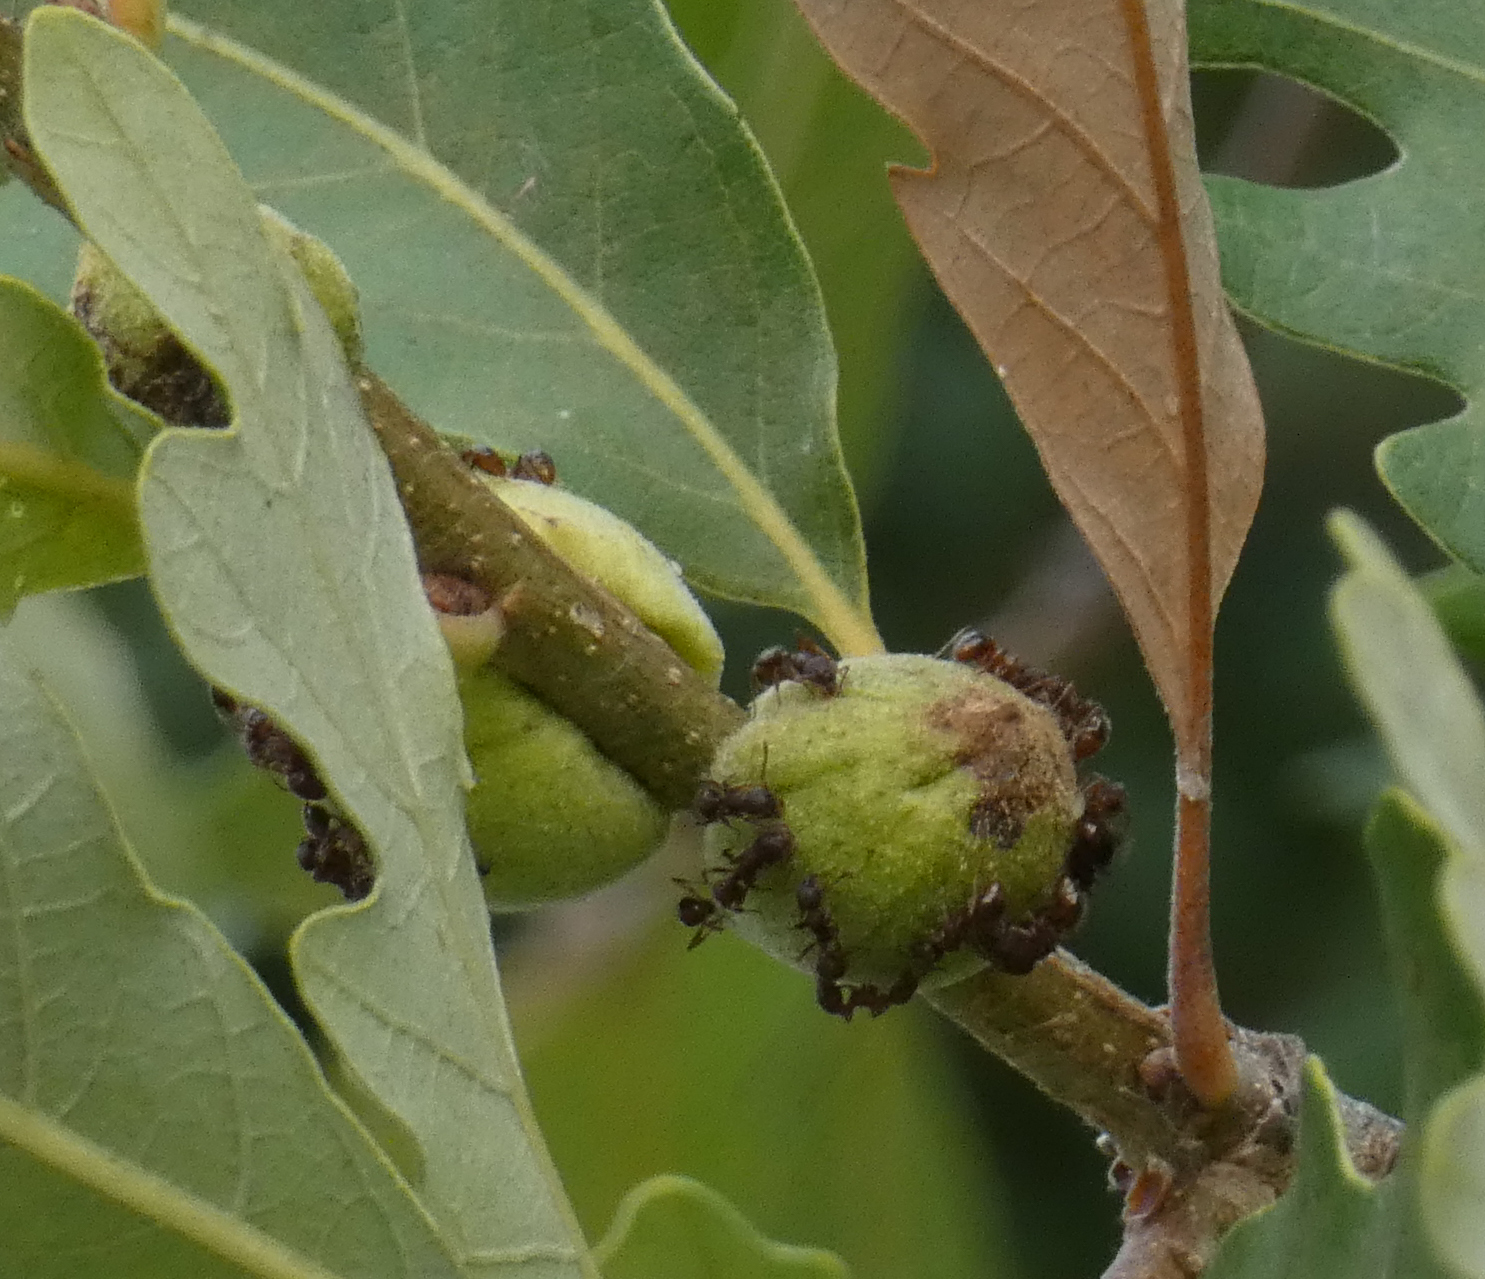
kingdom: Animalia
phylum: Arthropoda
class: Insecta
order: Hymenoptera
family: Cynipidae
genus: Disholcaspis
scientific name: Disholcaspis
